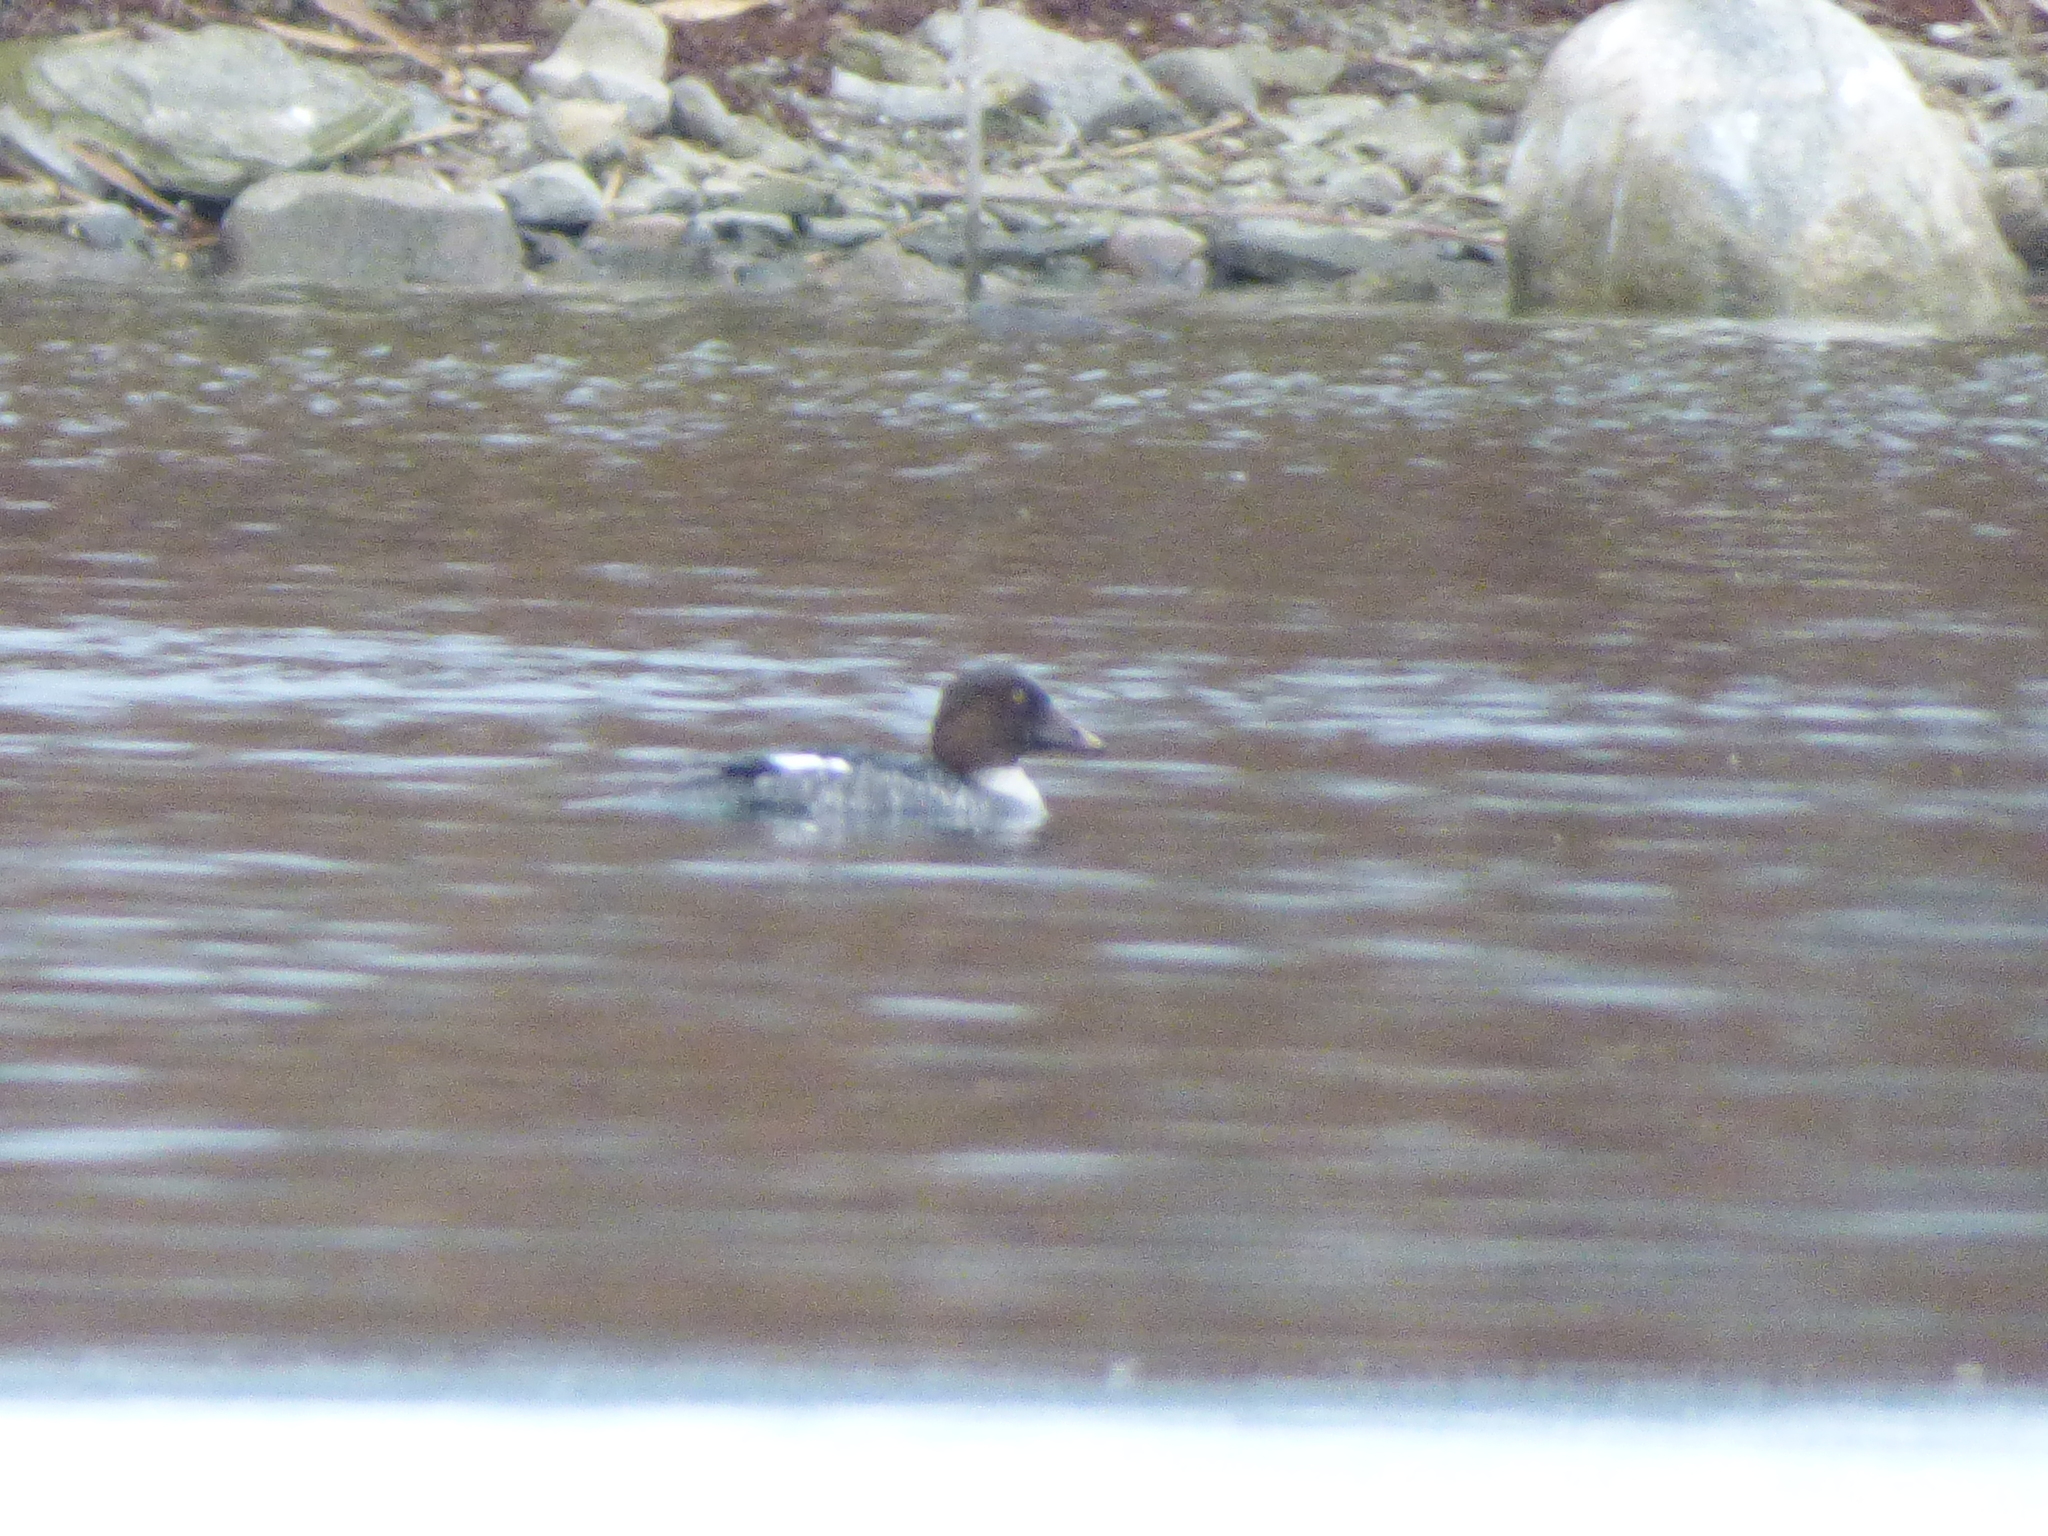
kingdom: Animalia
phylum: Chordata
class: Aves
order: Anseriformes
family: Anatidae
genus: Bucephala
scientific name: Bucephala clangula
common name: Common goldeneye
